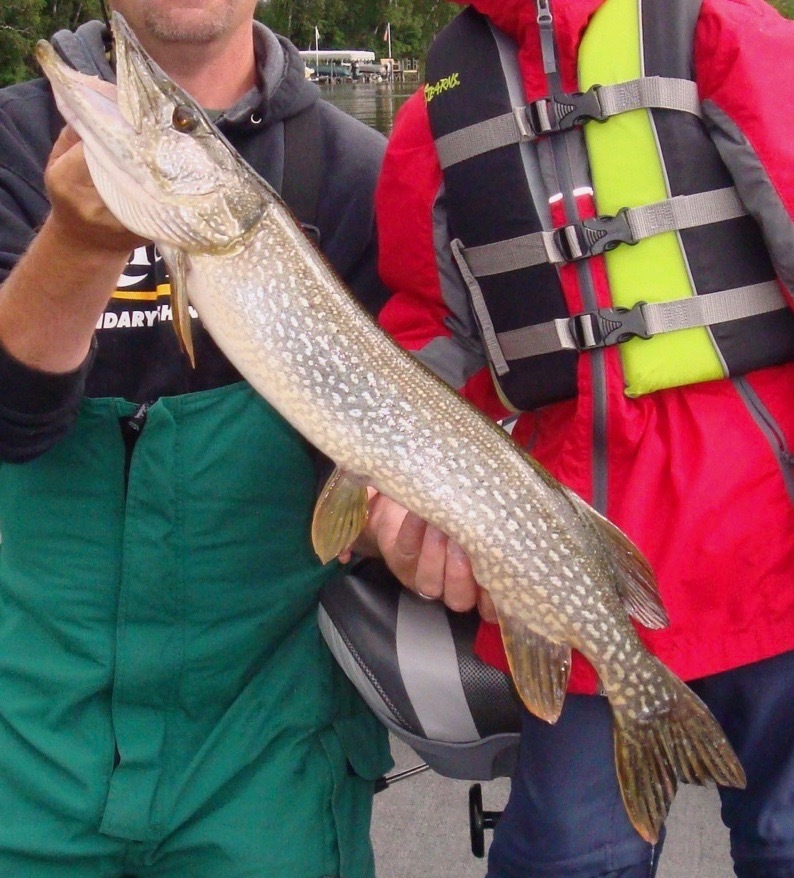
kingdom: Animalia
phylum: Chordata
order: Esociformes
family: Esocidae
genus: Esox
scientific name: Esox lucius
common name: Northern pike
